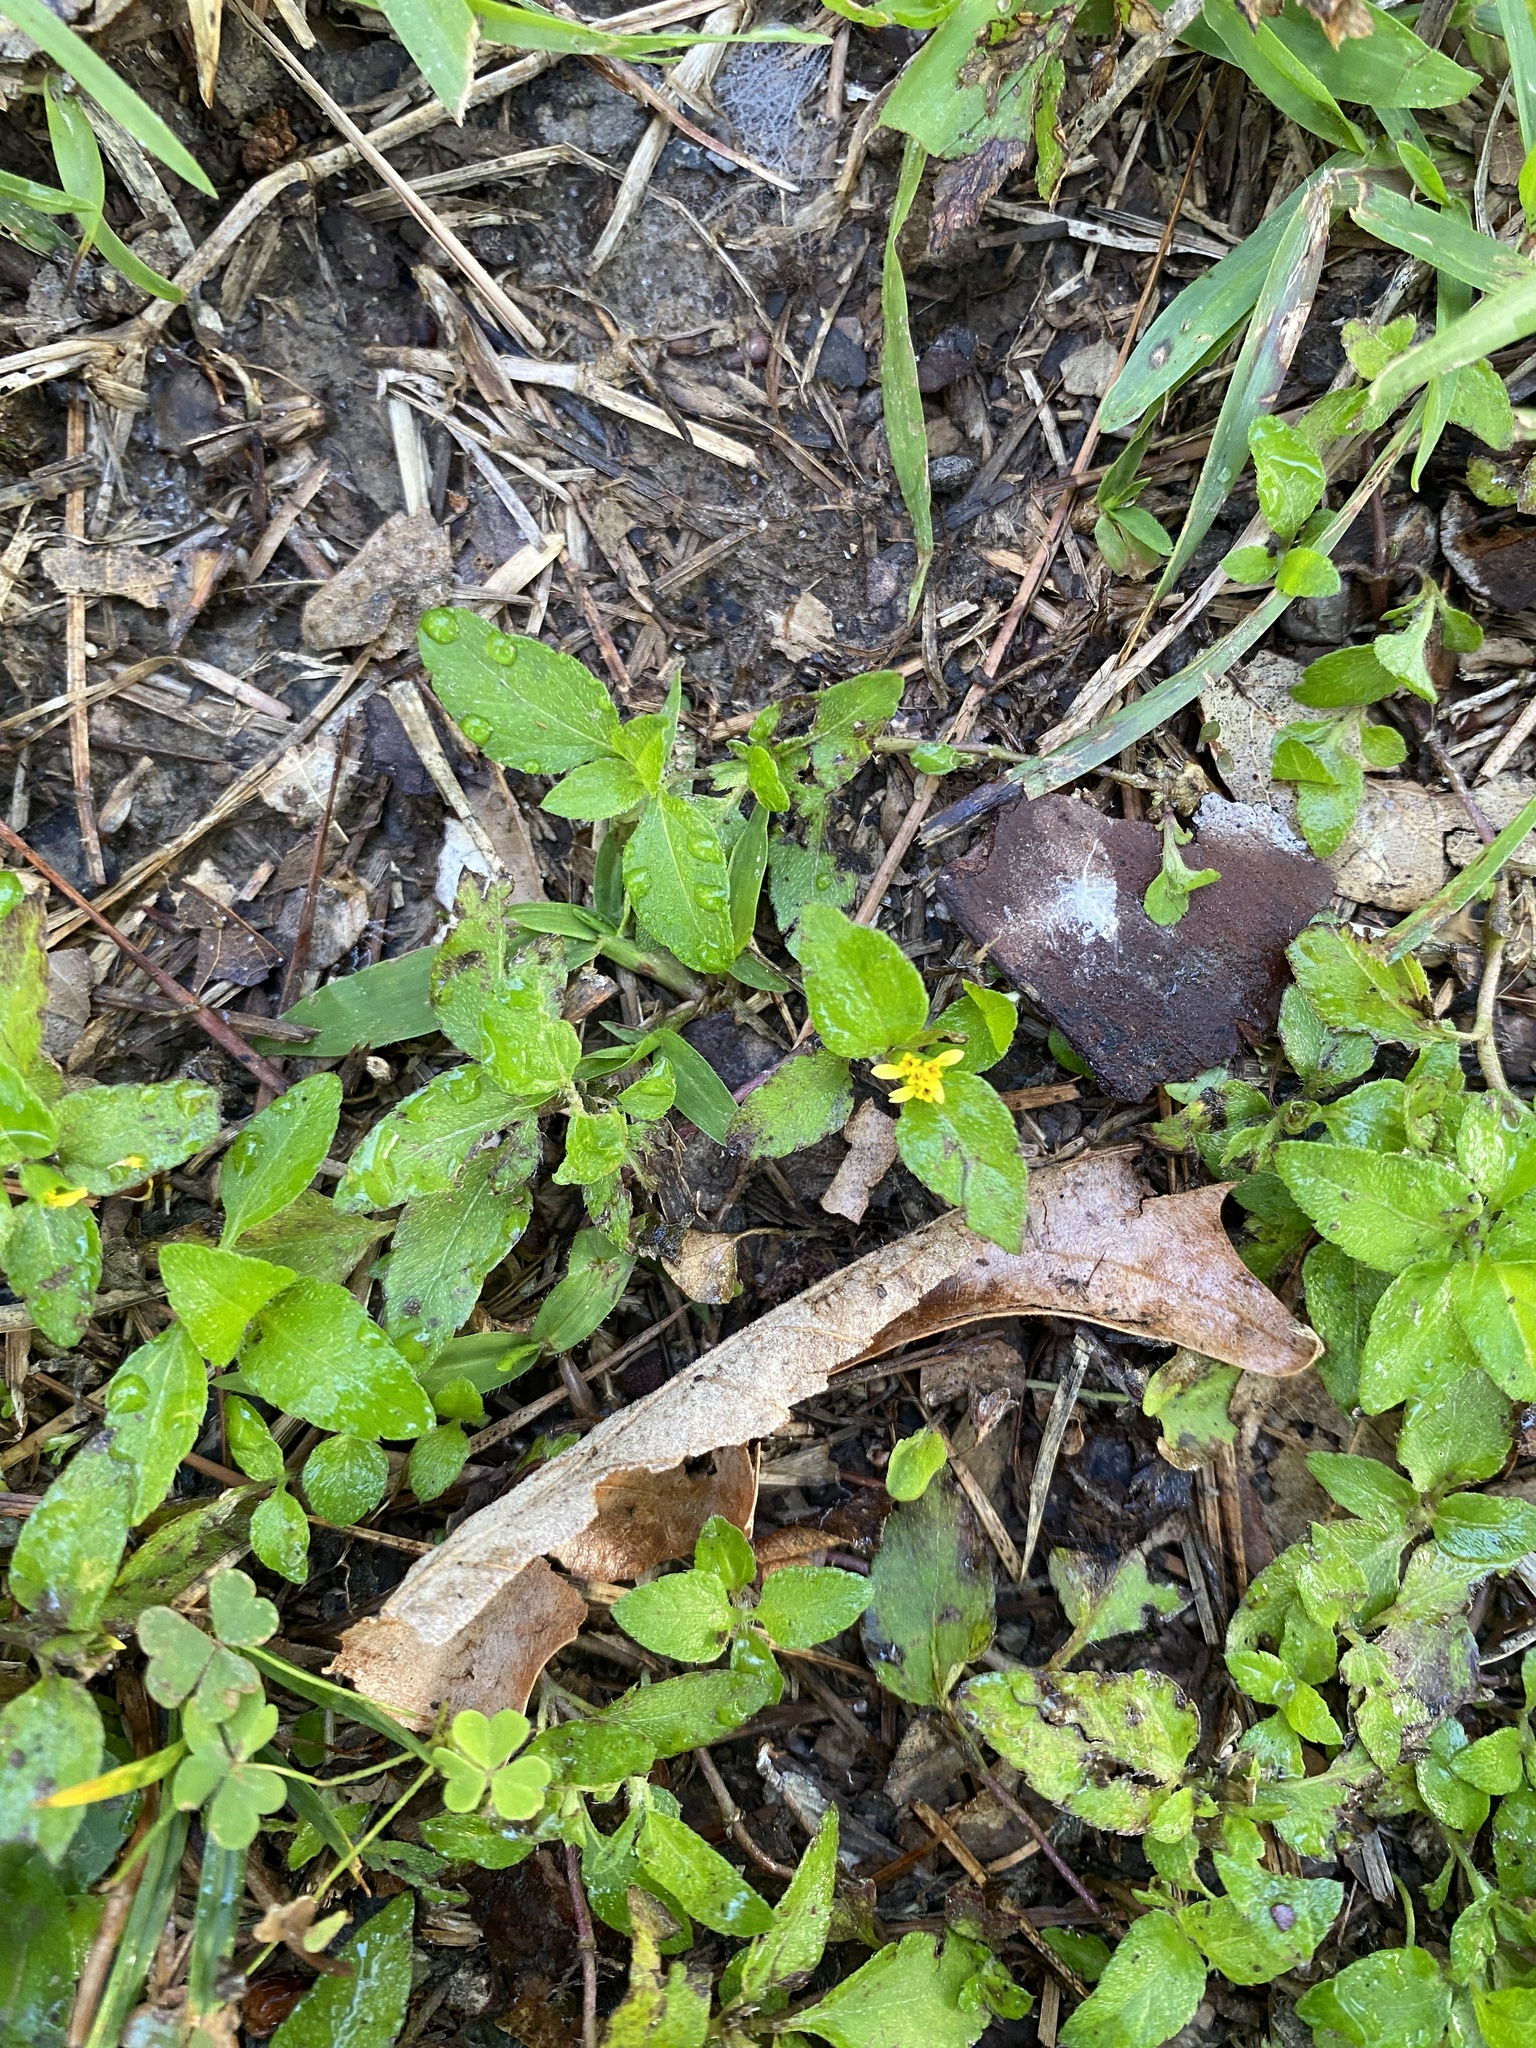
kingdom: Plantae
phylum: Tracheophyta
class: Magnoliopsida
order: Asterales
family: Asteraceae
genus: Calyptocarpus
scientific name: Calyptocarpus vialis
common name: Straggler daisy
